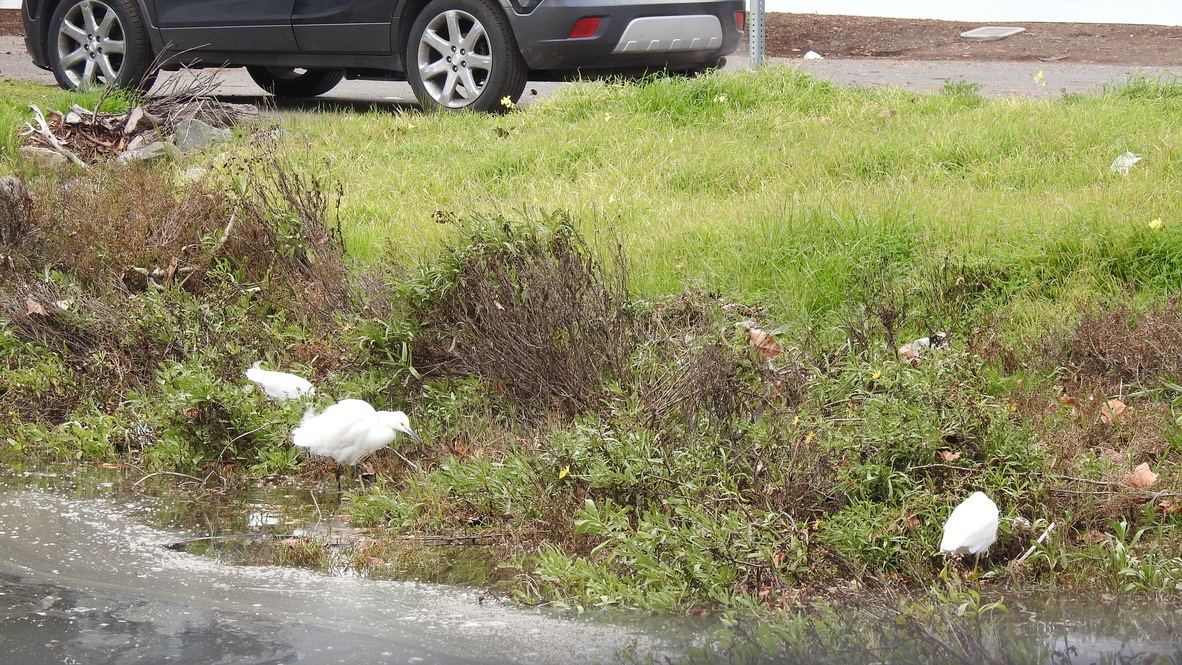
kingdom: Animalia
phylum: Chordata
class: Aves
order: Pelecaniformes
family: Ardeidae
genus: Egretta
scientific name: Egretta thula
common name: Snowy egret
